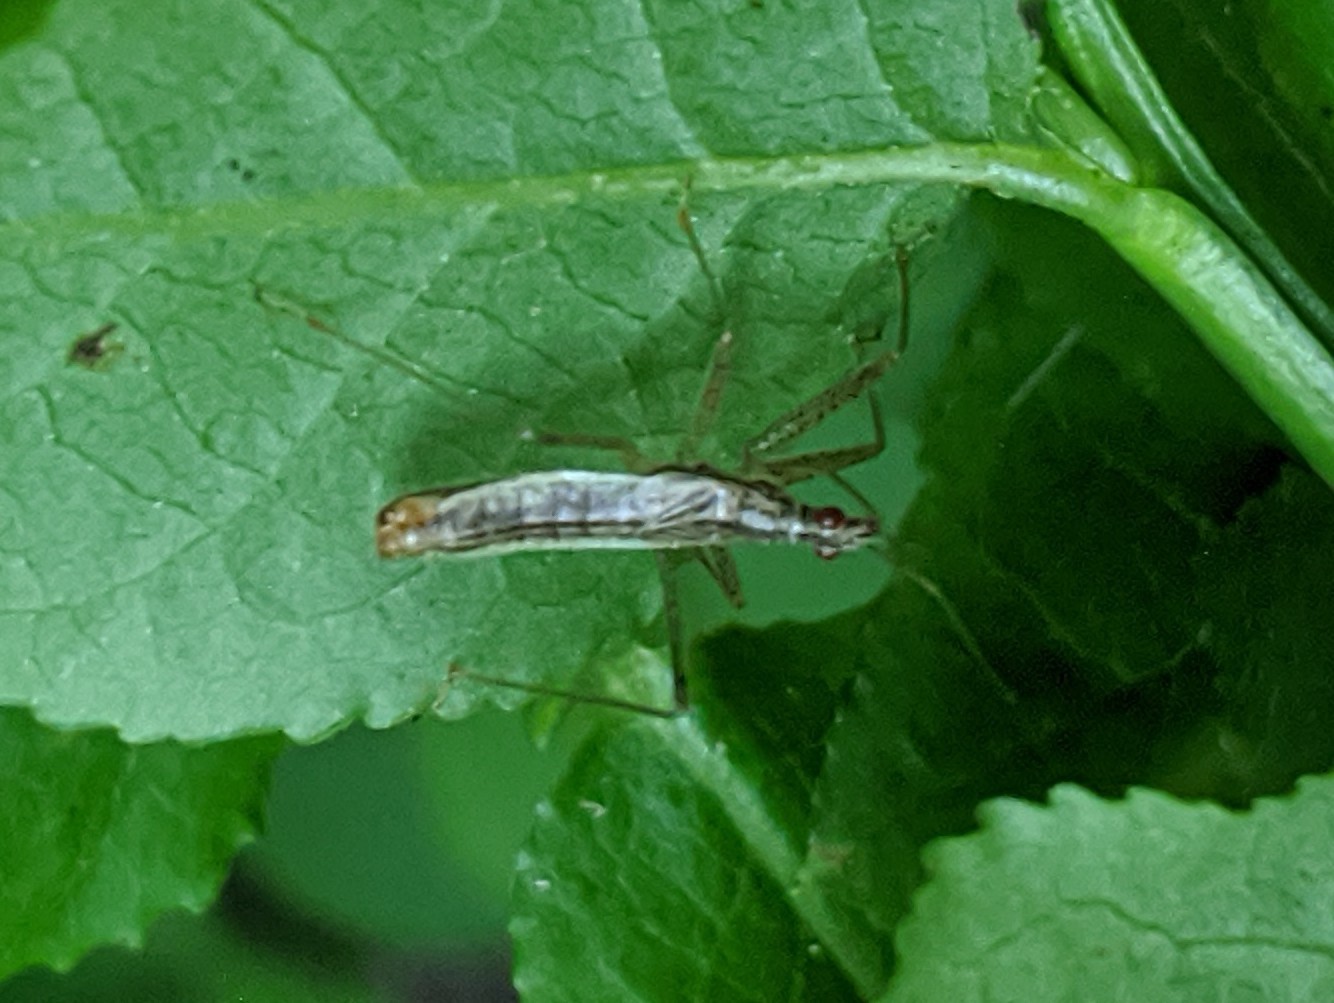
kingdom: Animalia
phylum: Arthropoda
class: Insecta
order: Hemiptera
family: Nabidae
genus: Nabis
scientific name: Nabis limbatus
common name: Marsh damselbug
